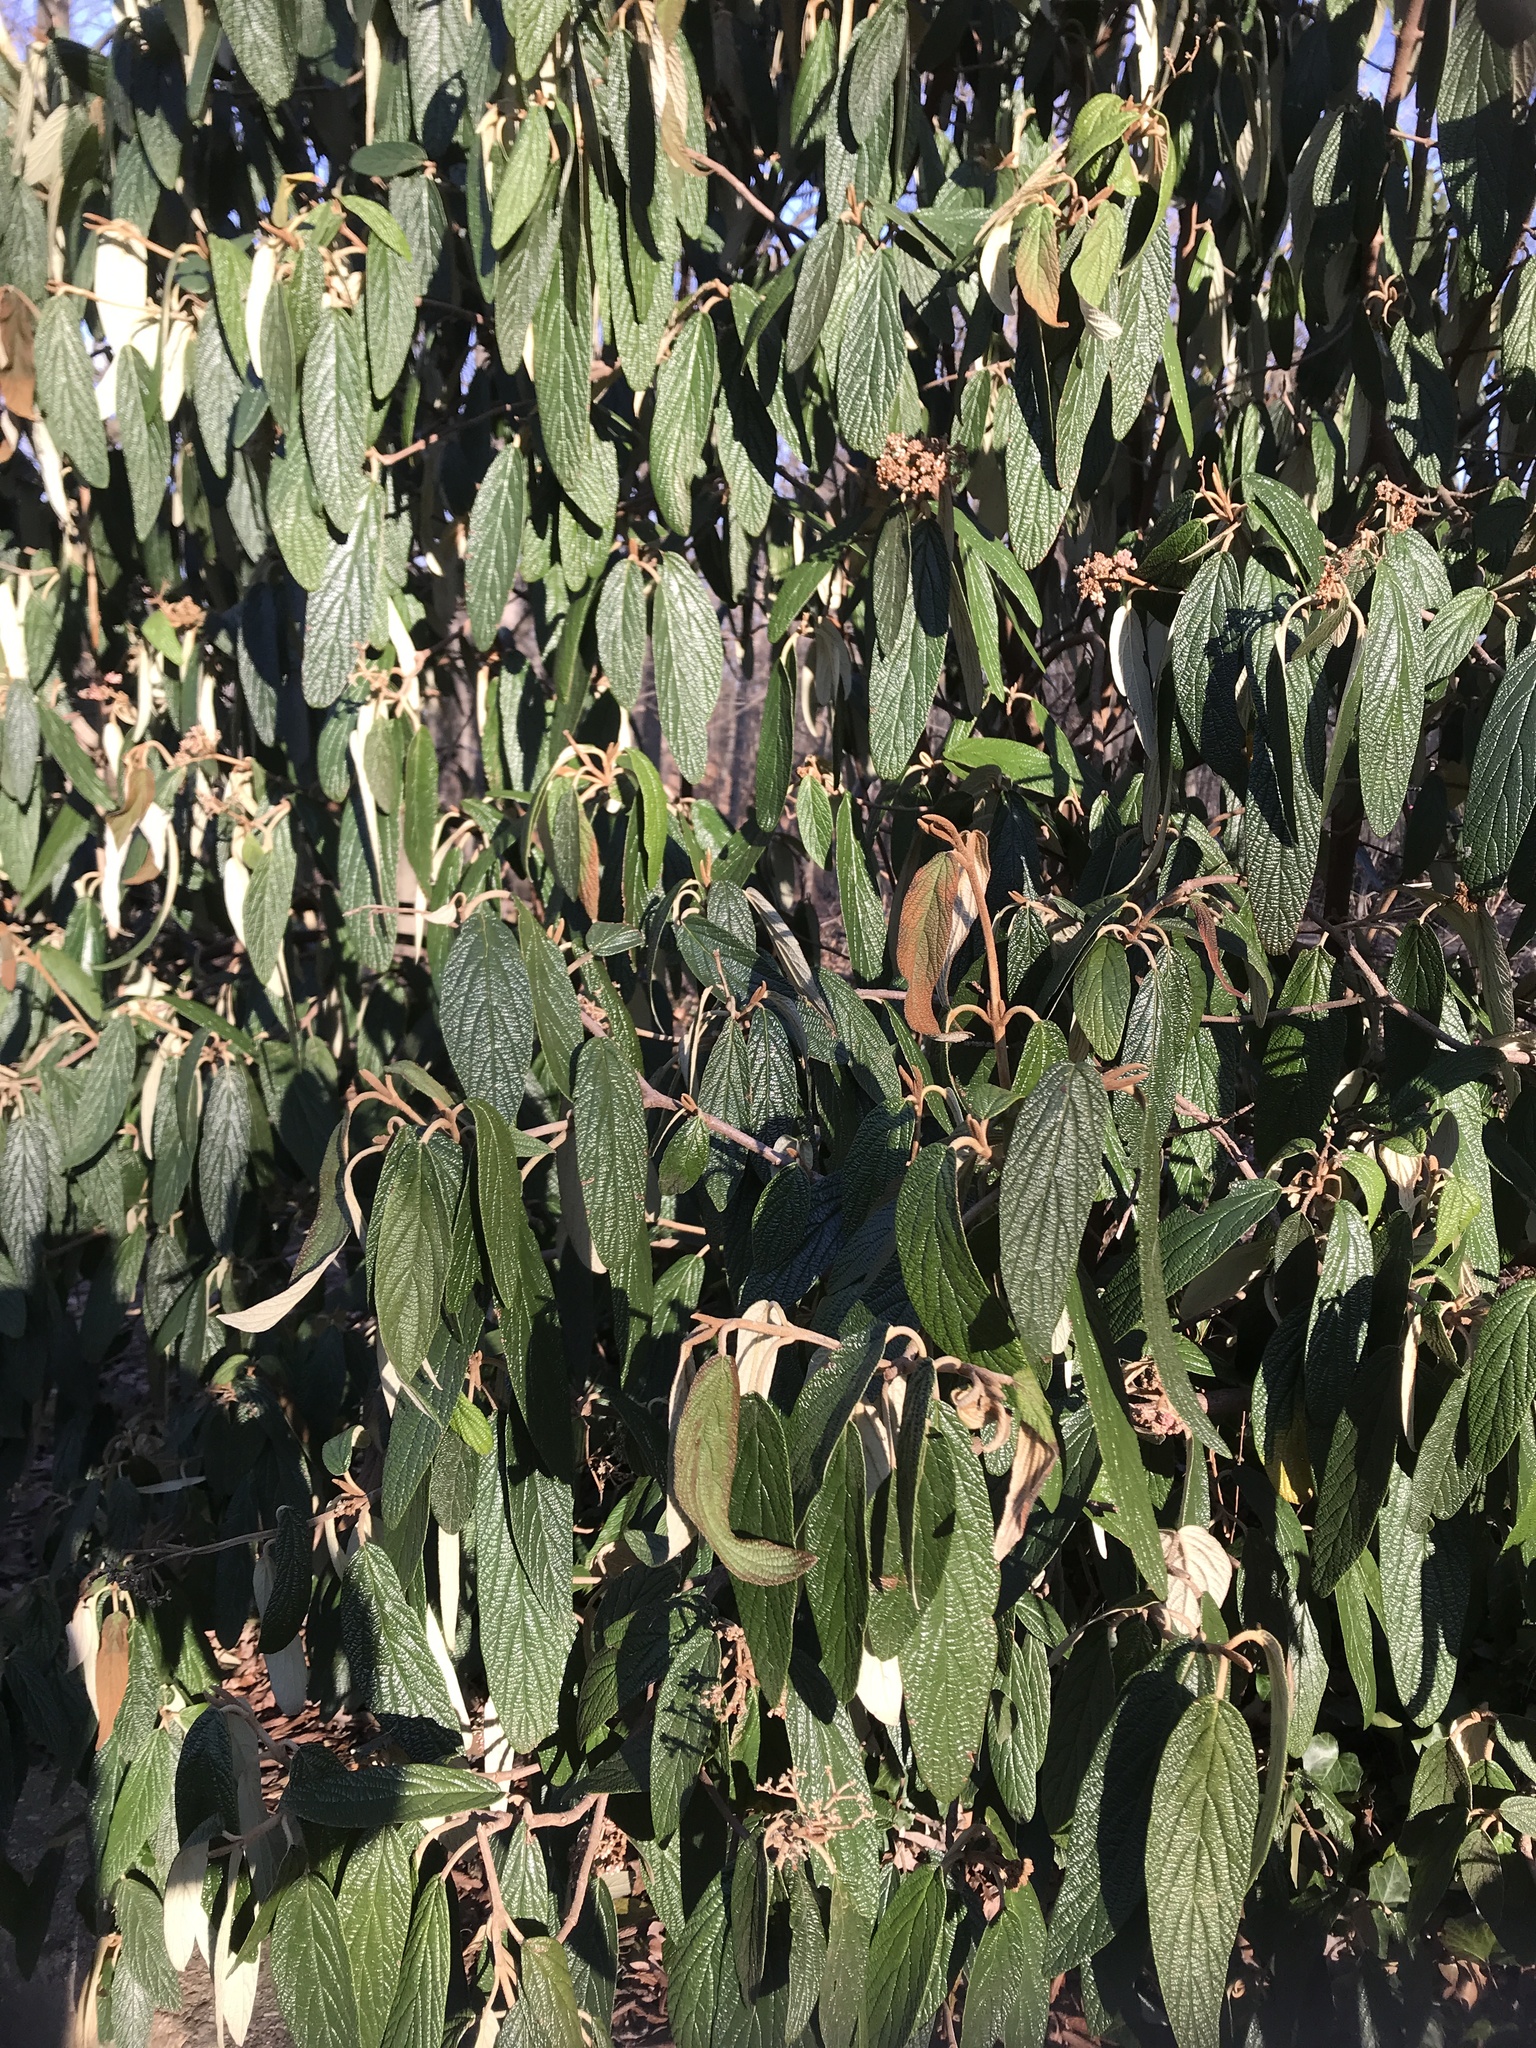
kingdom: Plantae
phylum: Tracheophyta
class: Magnoliopsida
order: Dipsacales
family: Viburnaceae
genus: Viburnum
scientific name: Viburnum rhytidophyllum
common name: Wrinkled viburnum
